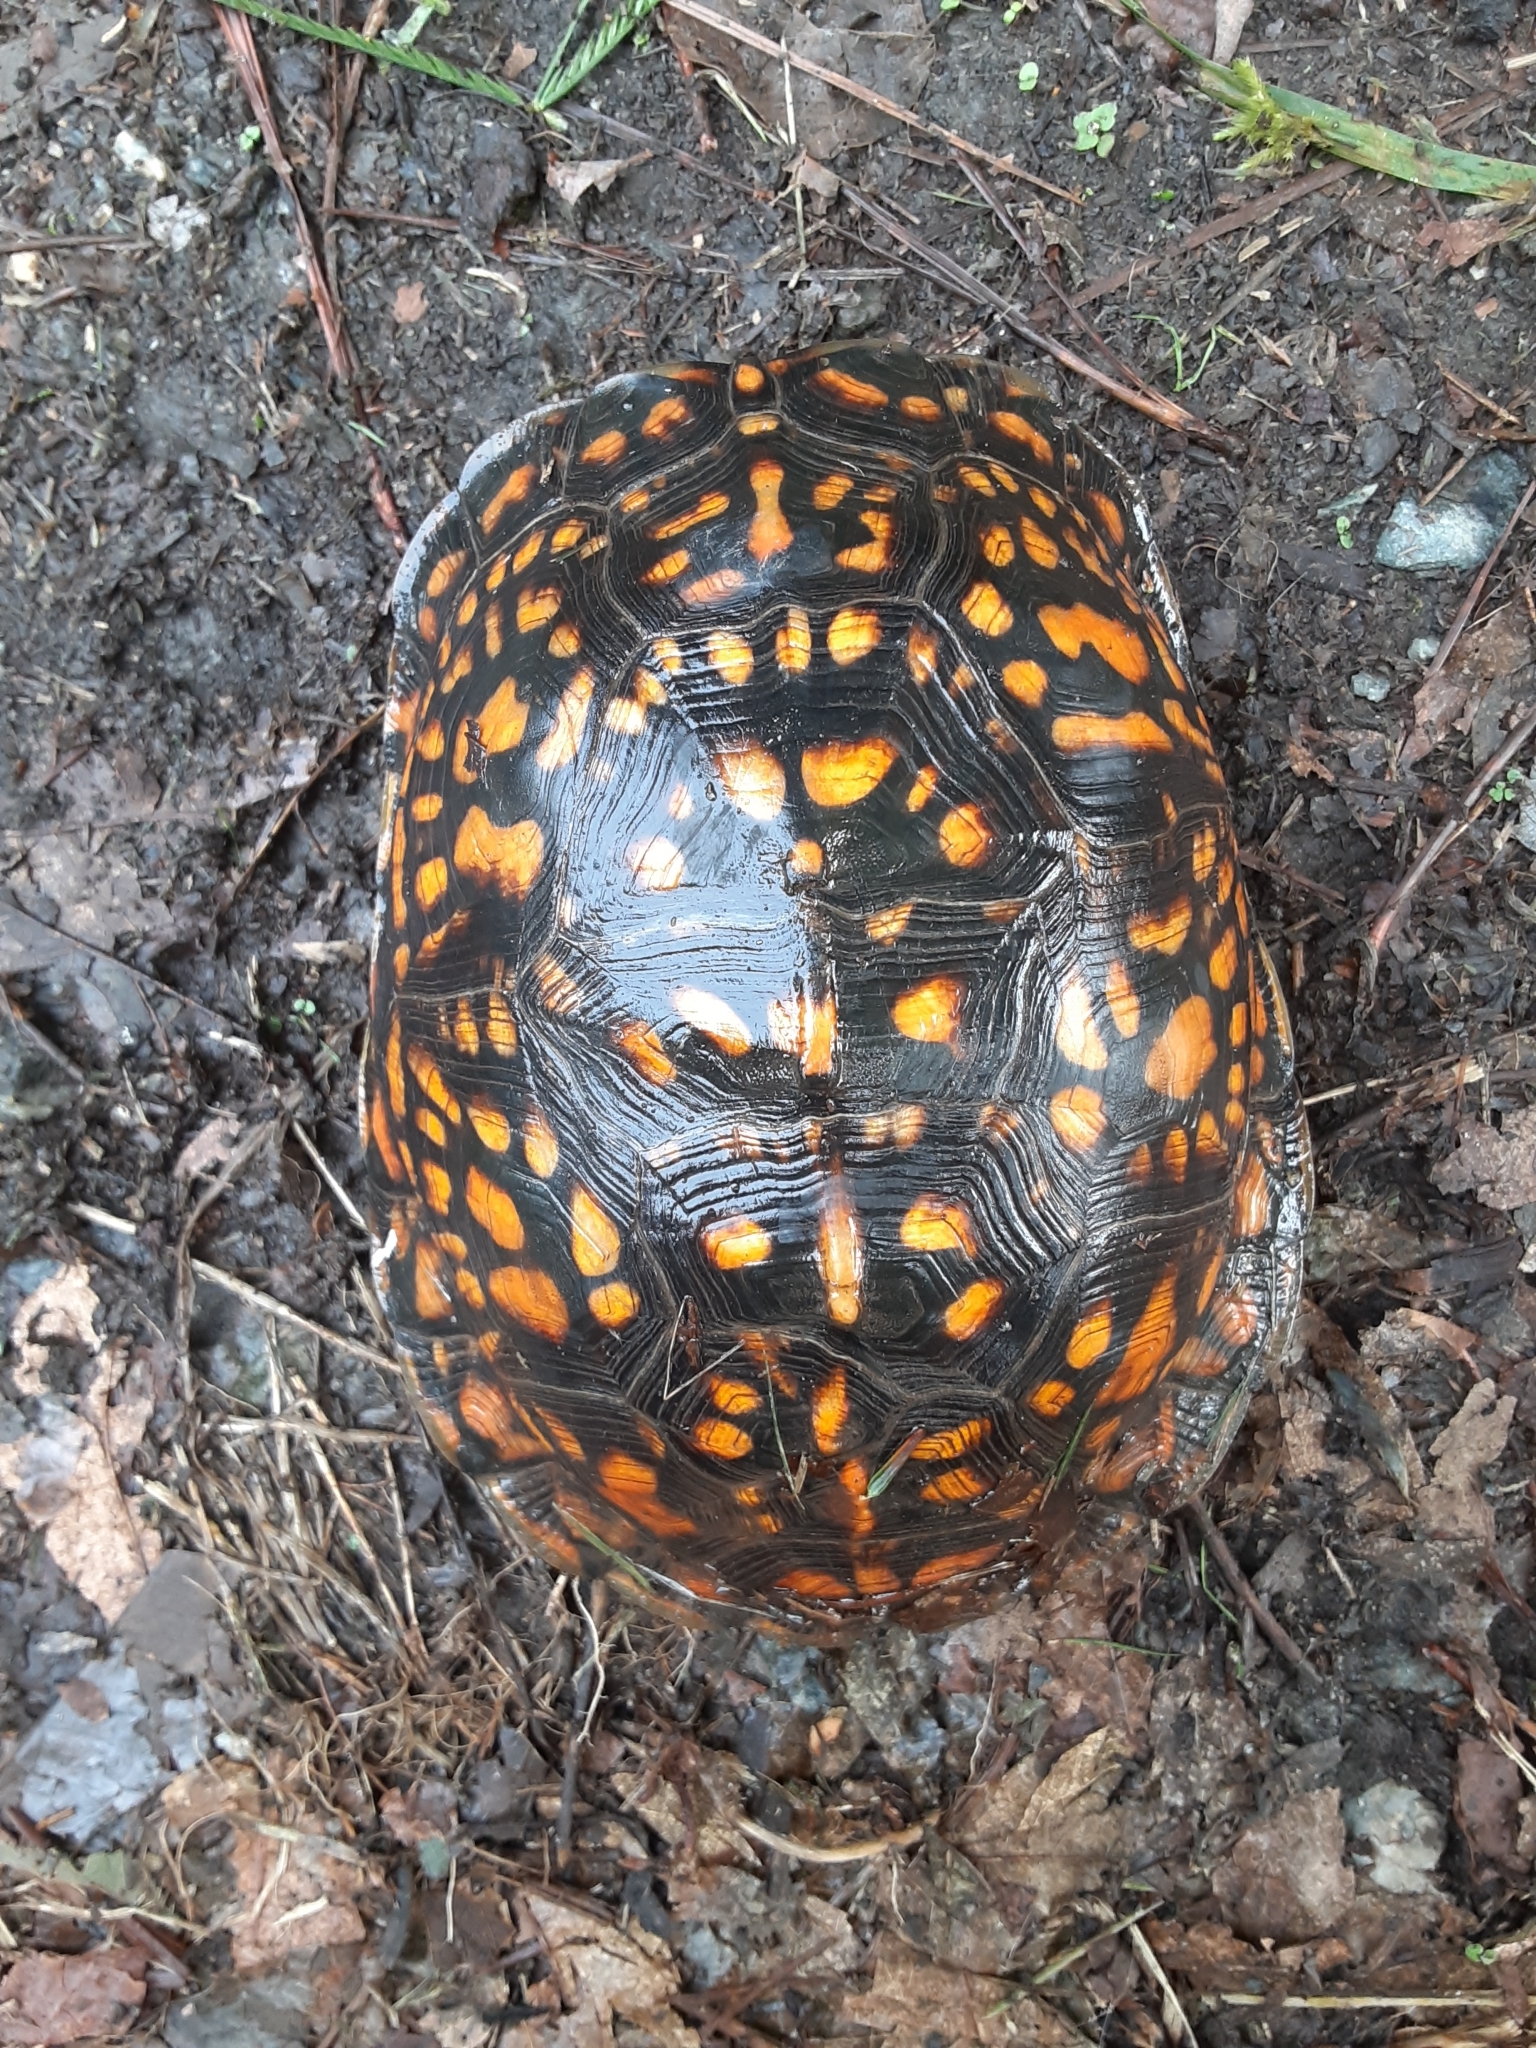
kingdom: Animalia
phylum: Chordata
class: Testudines
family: Emydidae
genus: Terrapene
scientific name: Terrapene carolina
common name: Common box turtle
